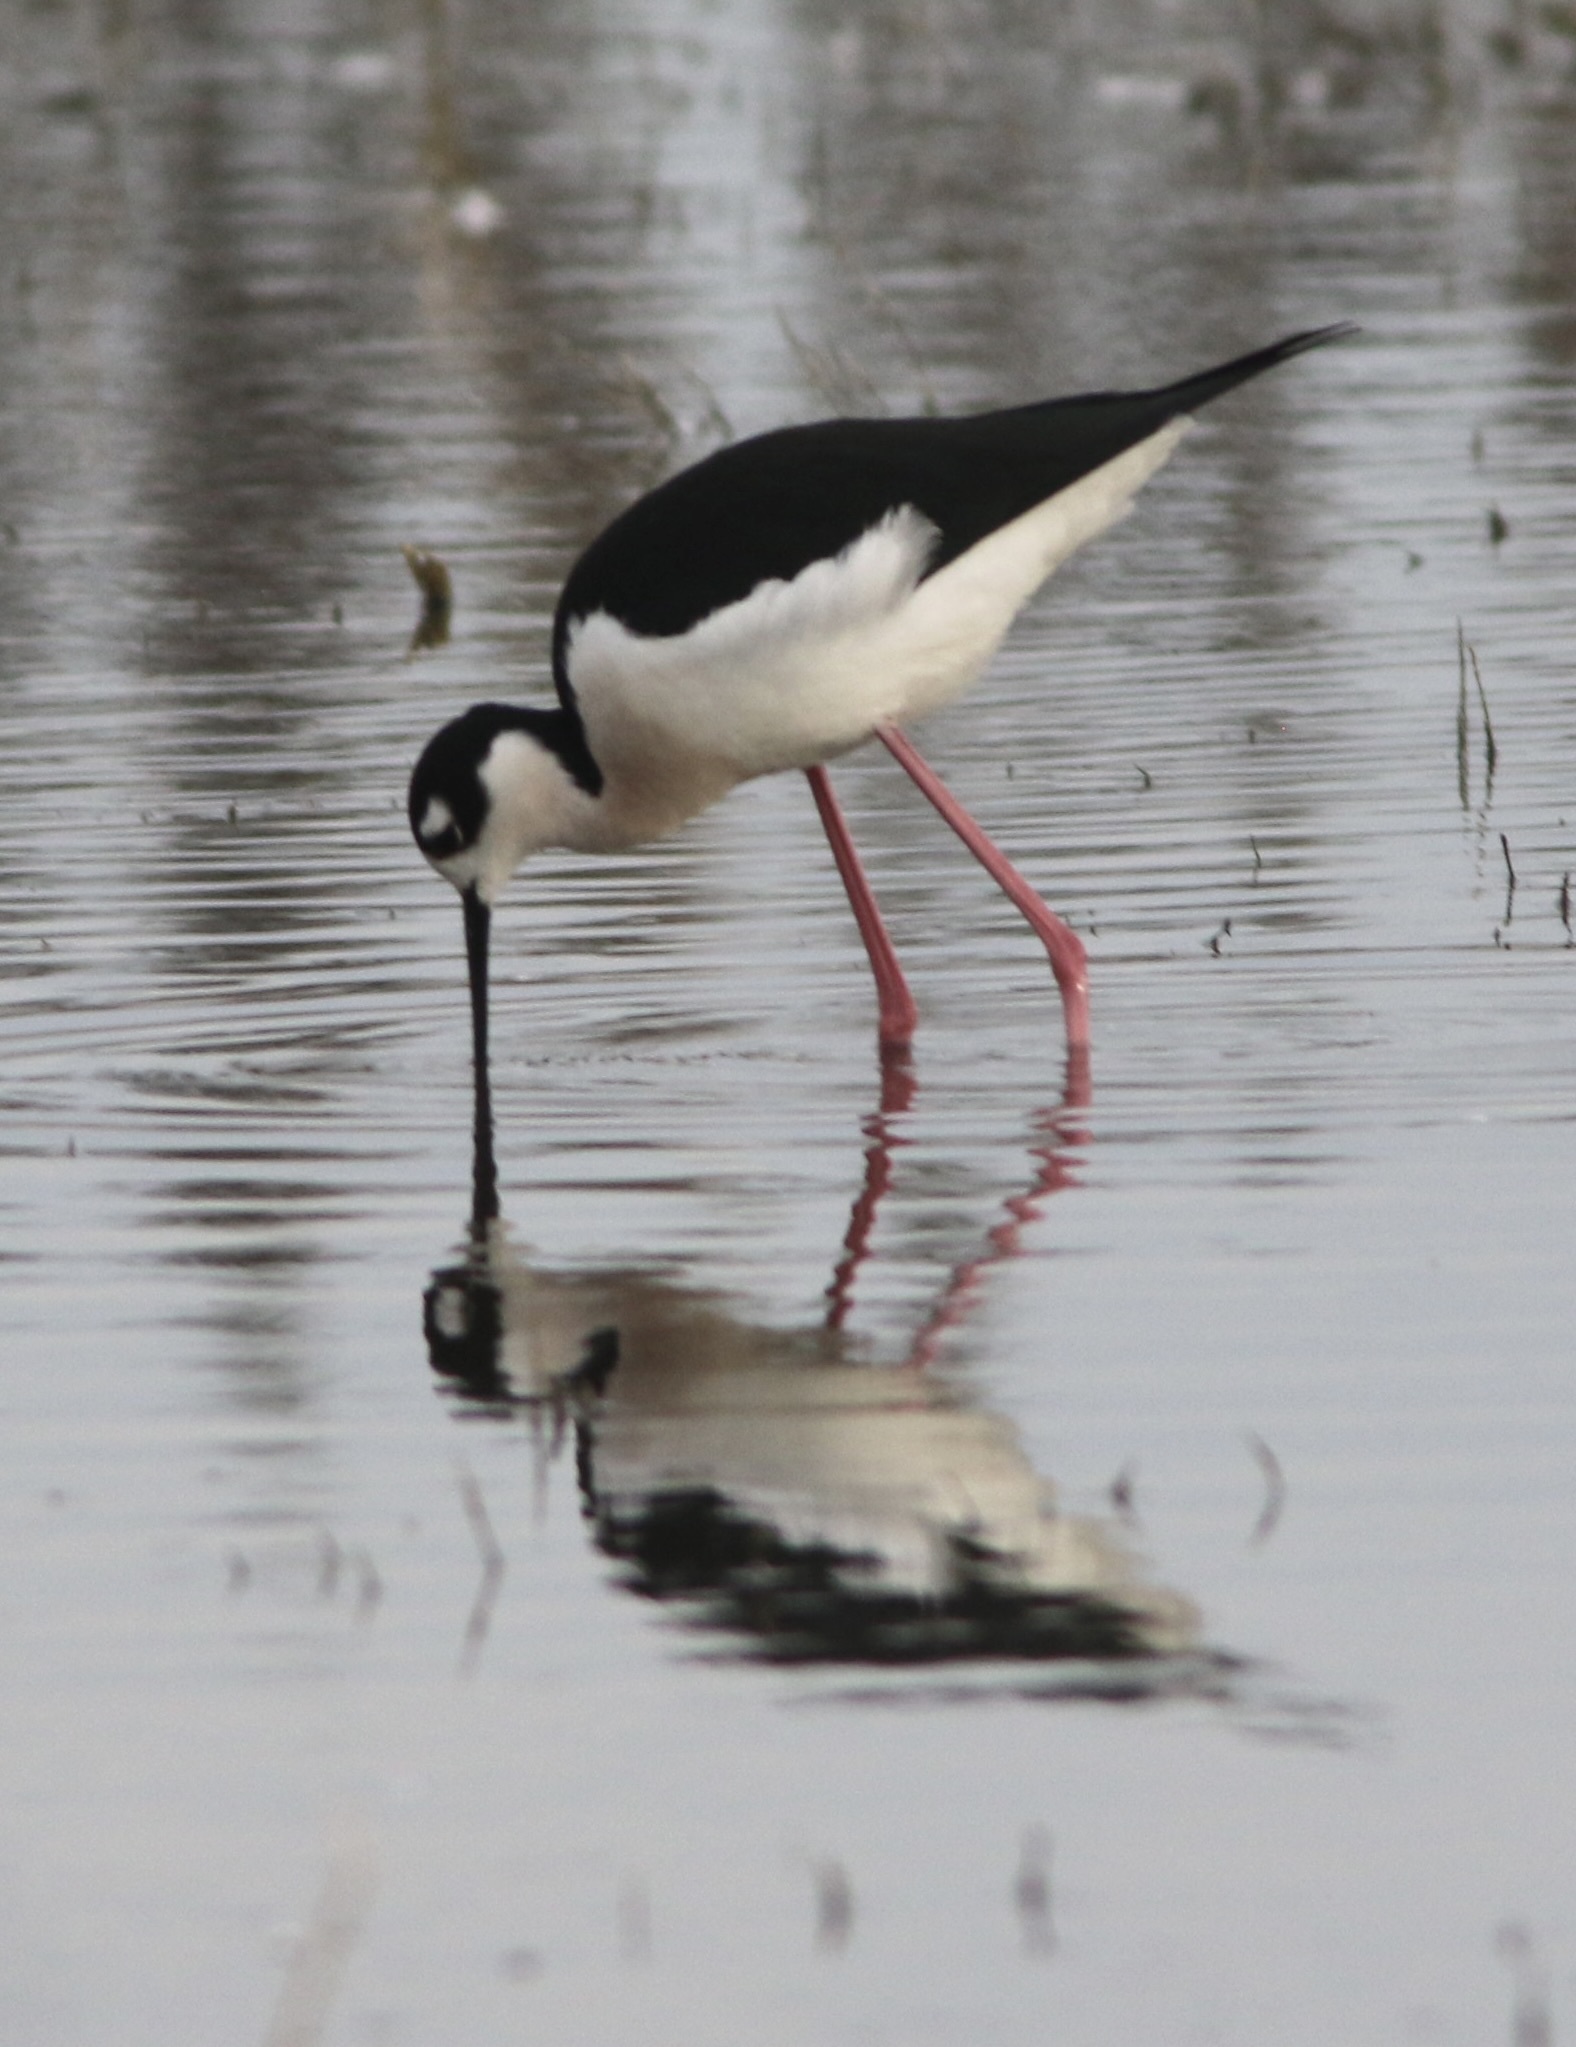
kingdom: Animalia
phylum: Chordata
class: Aves
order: Charadriiformes
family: Recurvirostridae
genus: Himantopus
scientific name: Himantopus mexicanus
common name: Black-necked stilt
